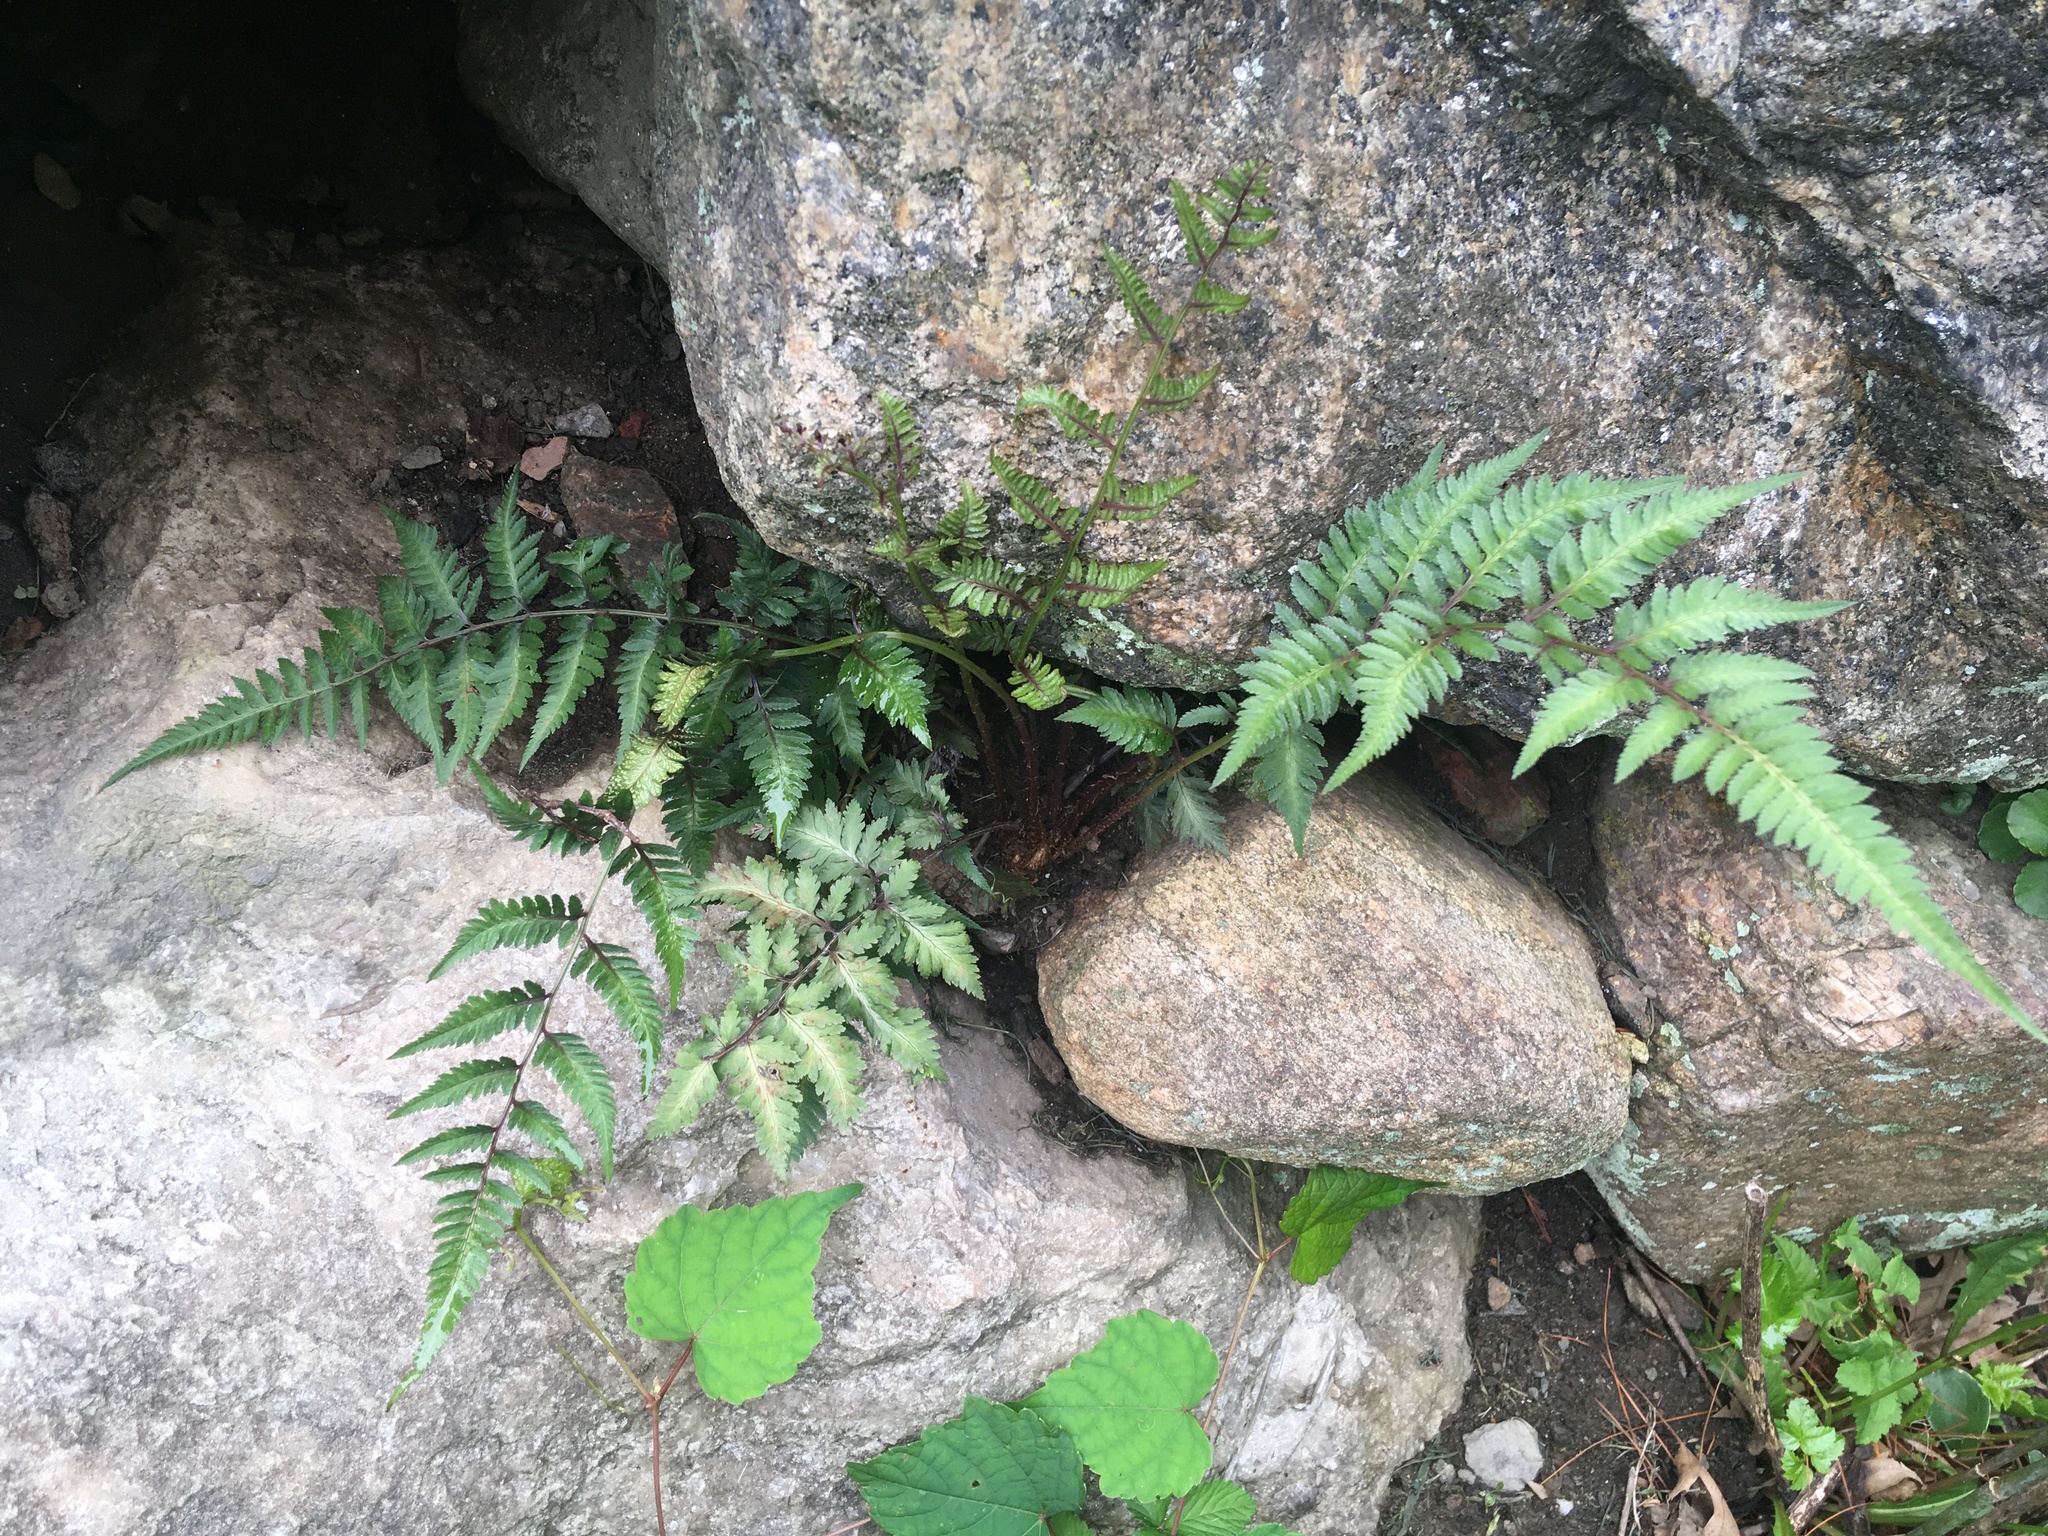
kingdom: Plantae
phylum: Tracheophyta
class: Polypodiopsida
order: Polypodiales
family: Athyriaceae
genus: Anisocampium
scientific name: Anisocampium niponicum
